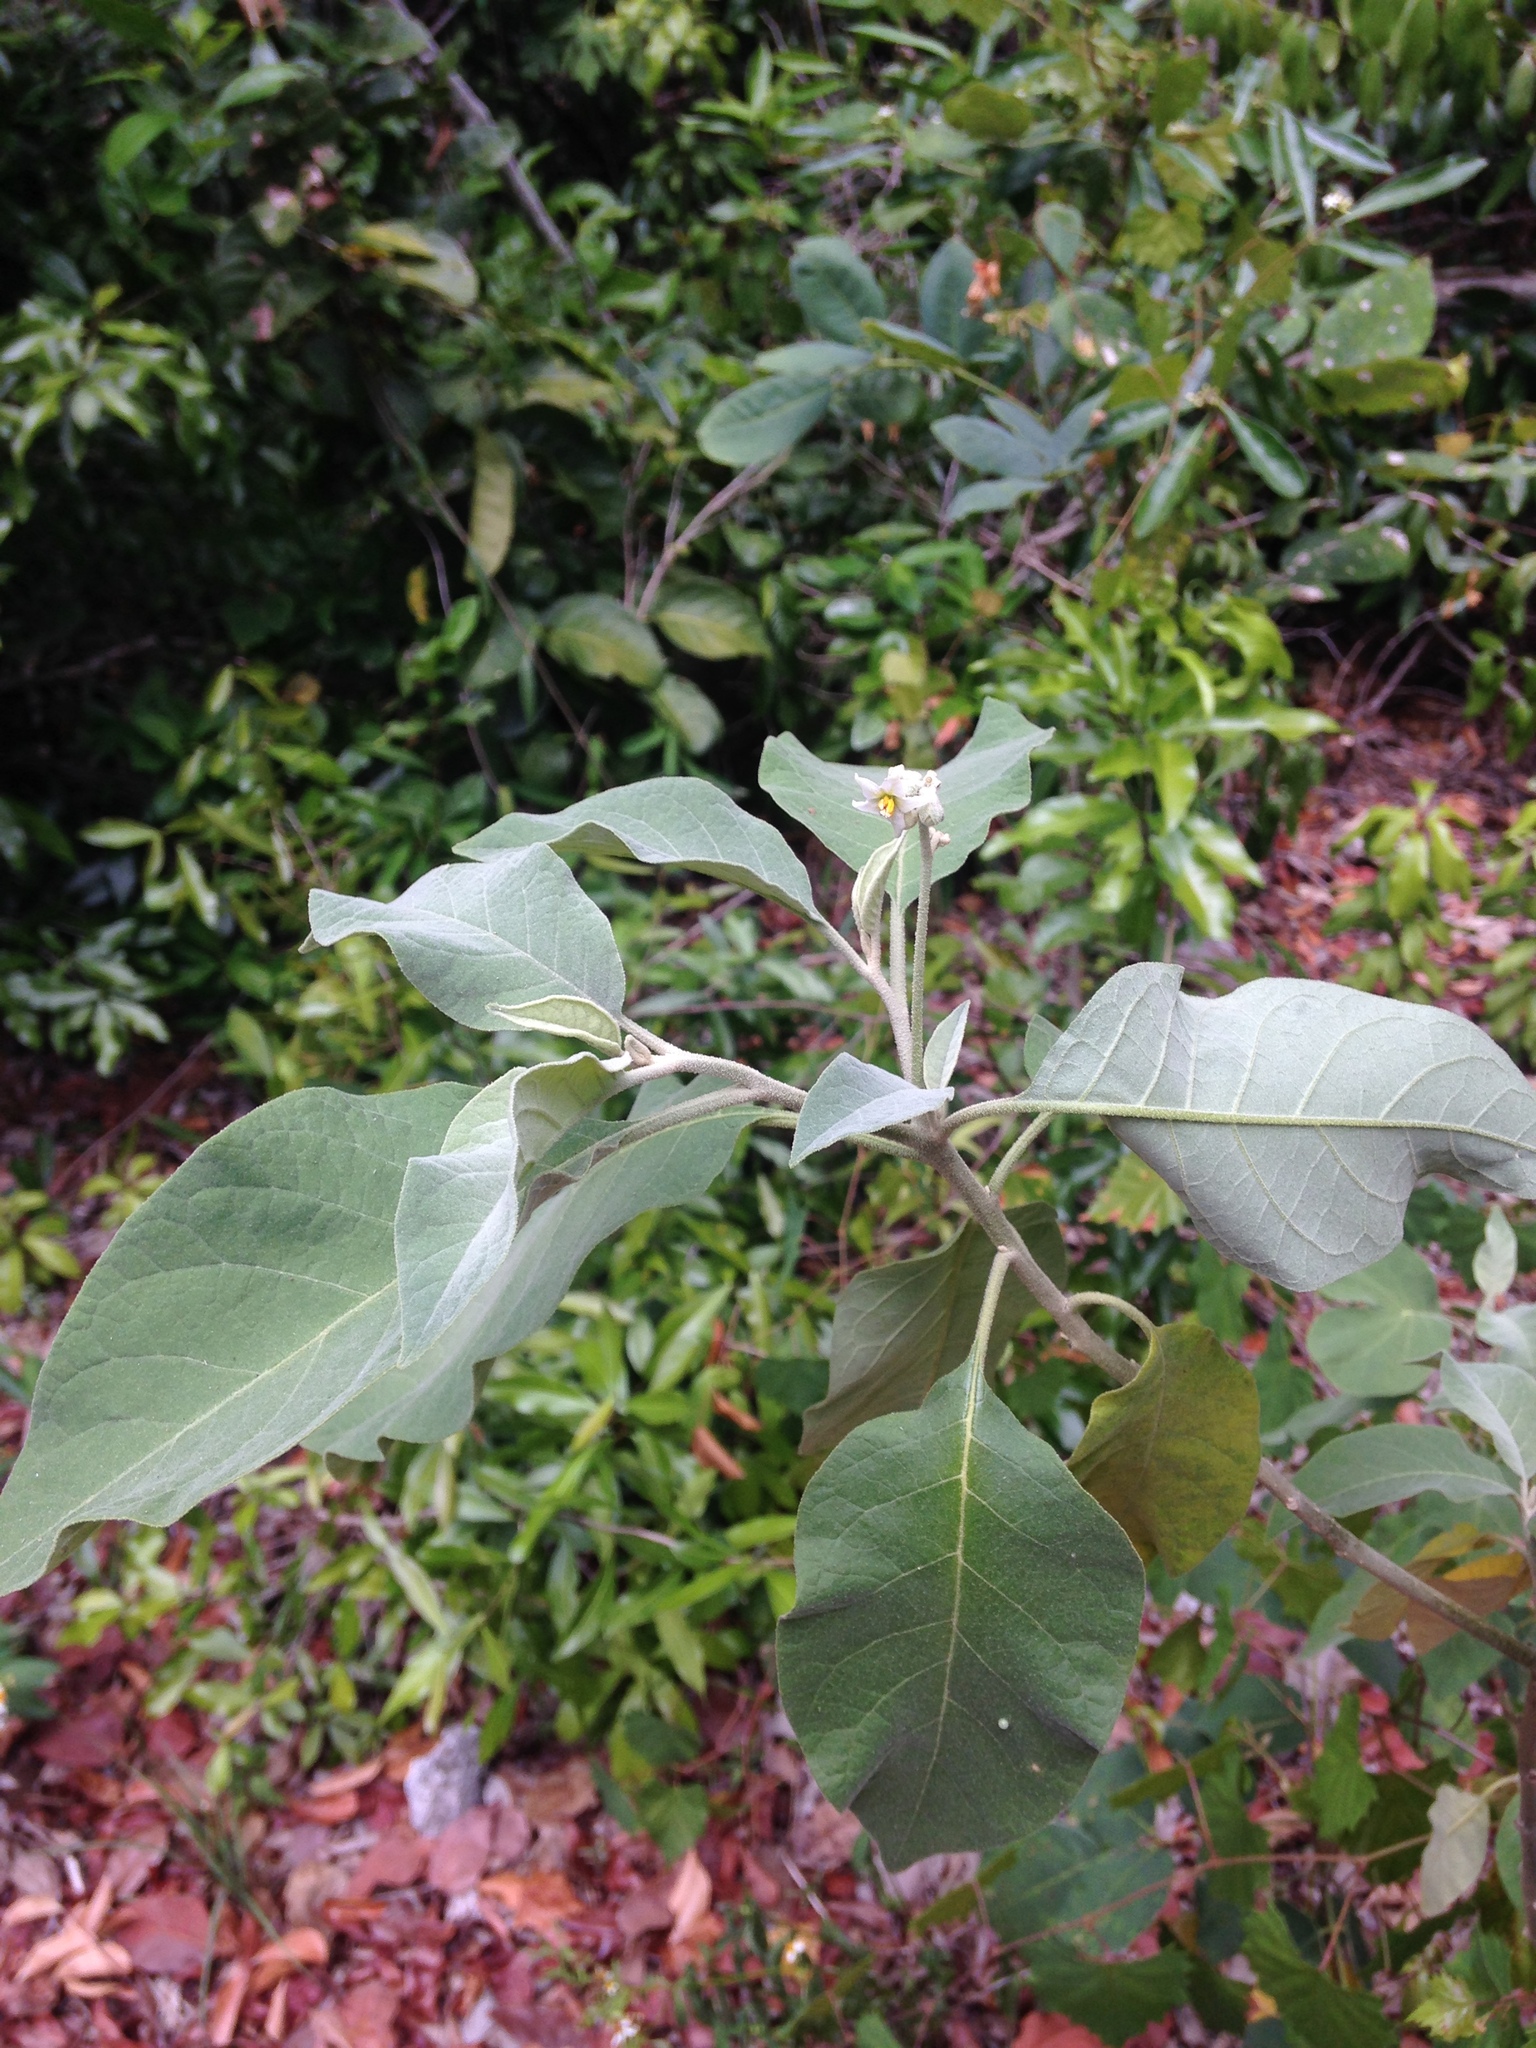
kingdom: Plantae
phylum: Tracheophyta
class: Magnoliopsida
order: Solanales
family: Solanaceae
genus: Solanum
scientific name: Solanum erianthum
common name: Tobacco-tree
